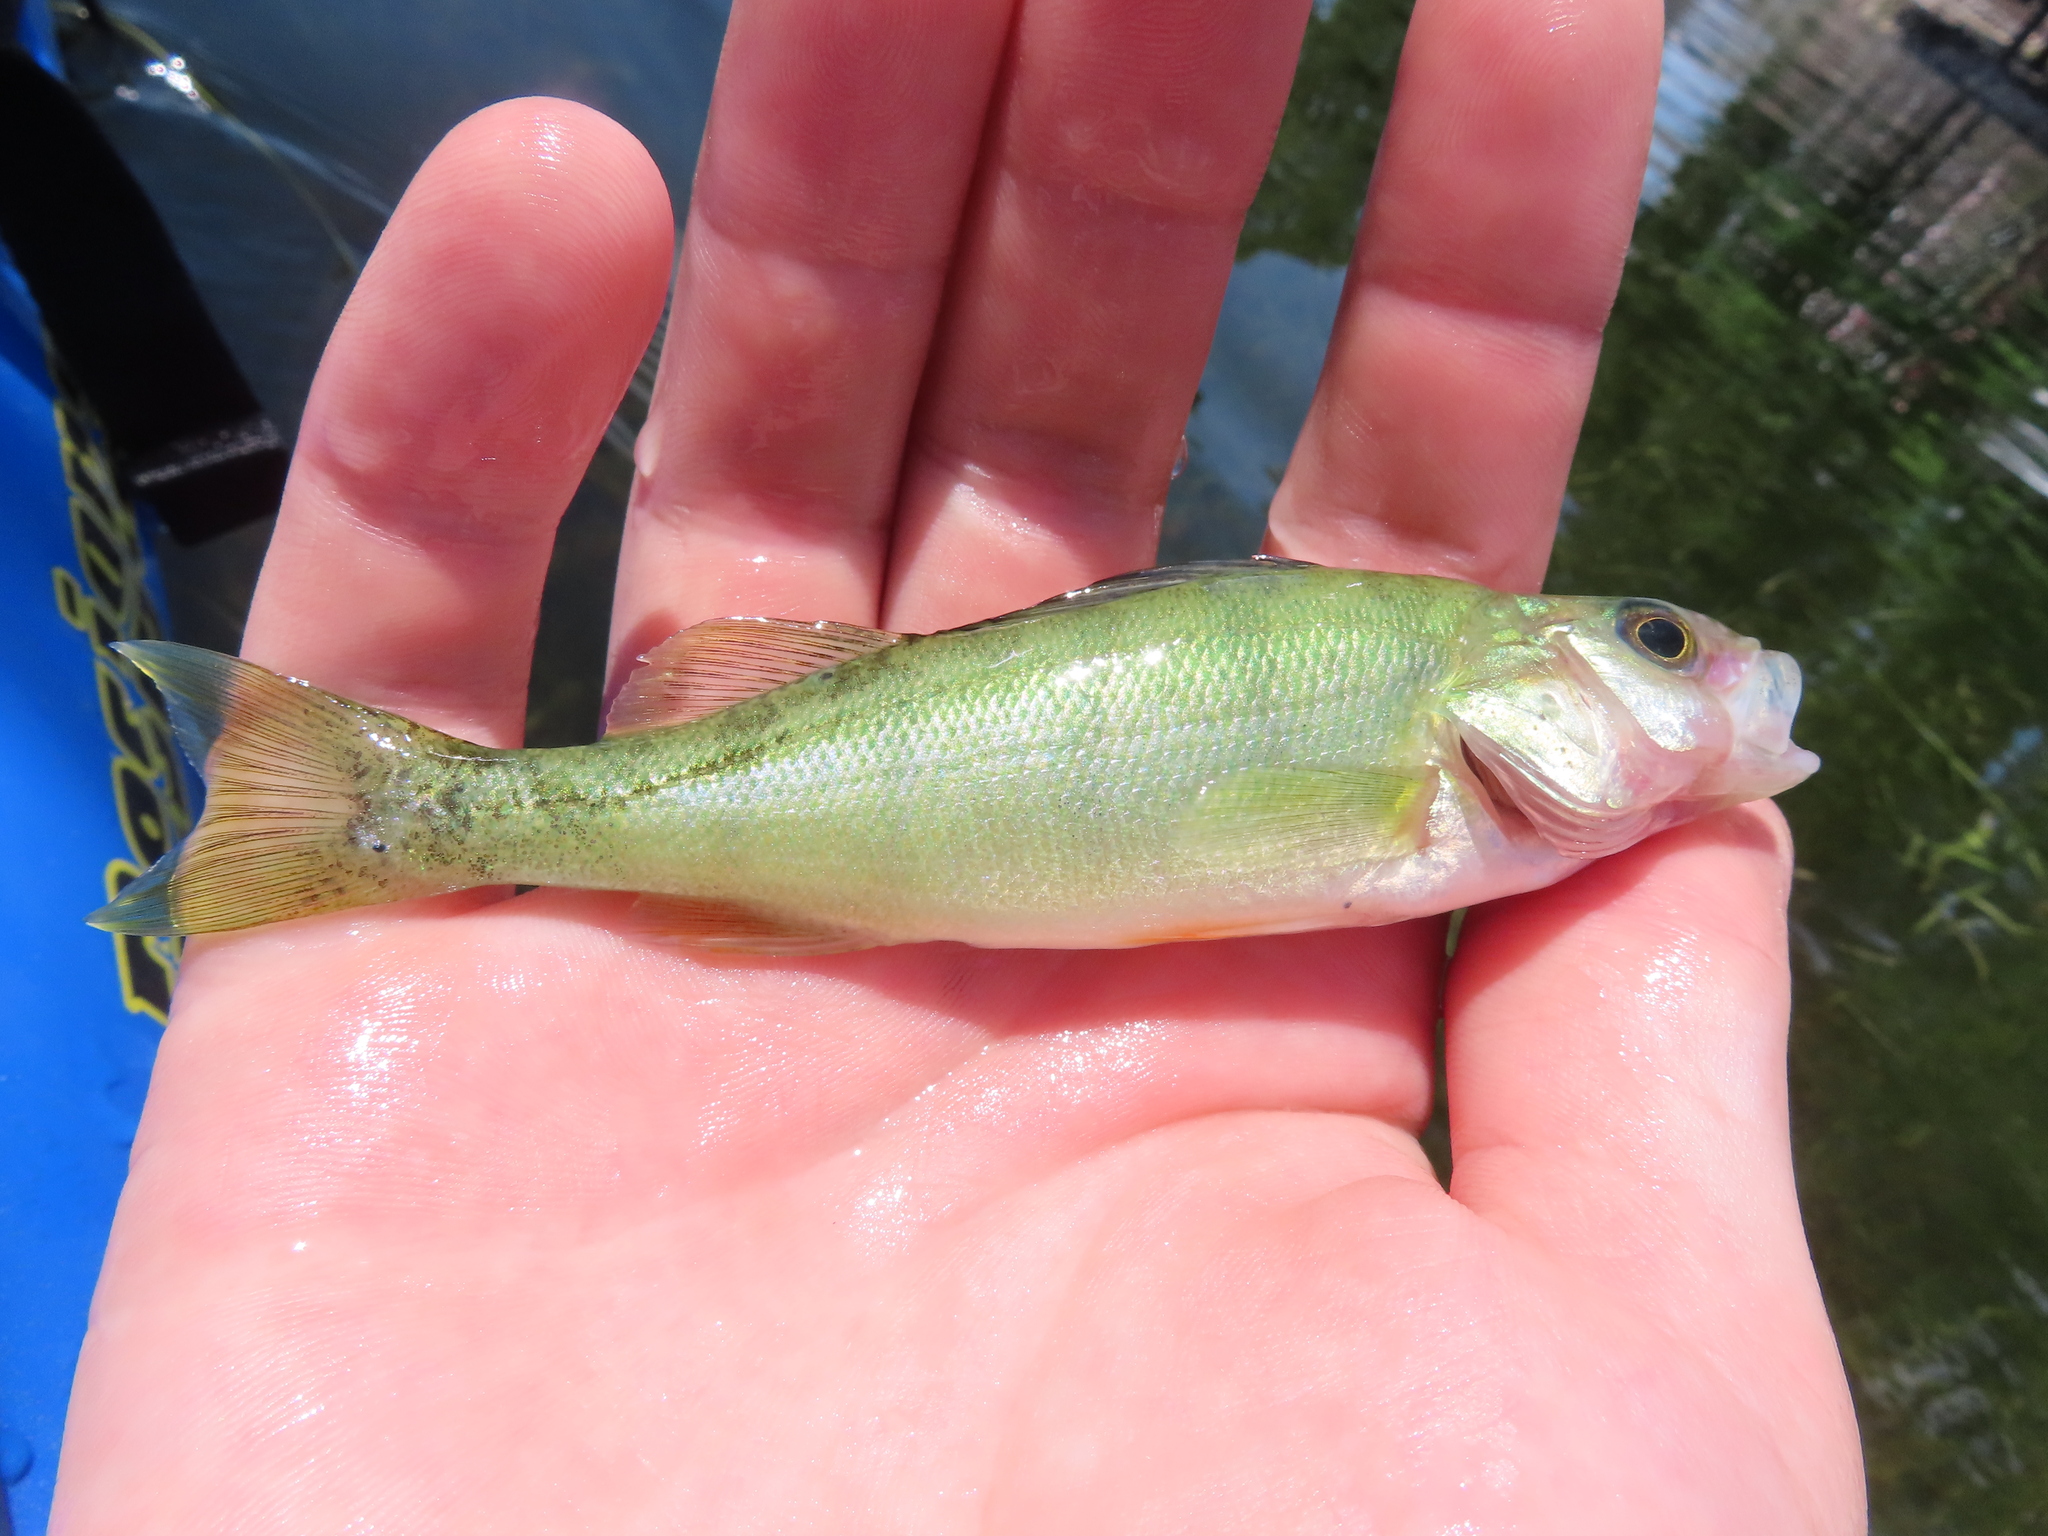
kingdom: Animalia
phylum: Chordata
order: Perciformes
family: Percidae
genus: Perca
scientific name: Perca flavescens
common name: Yellow perch
